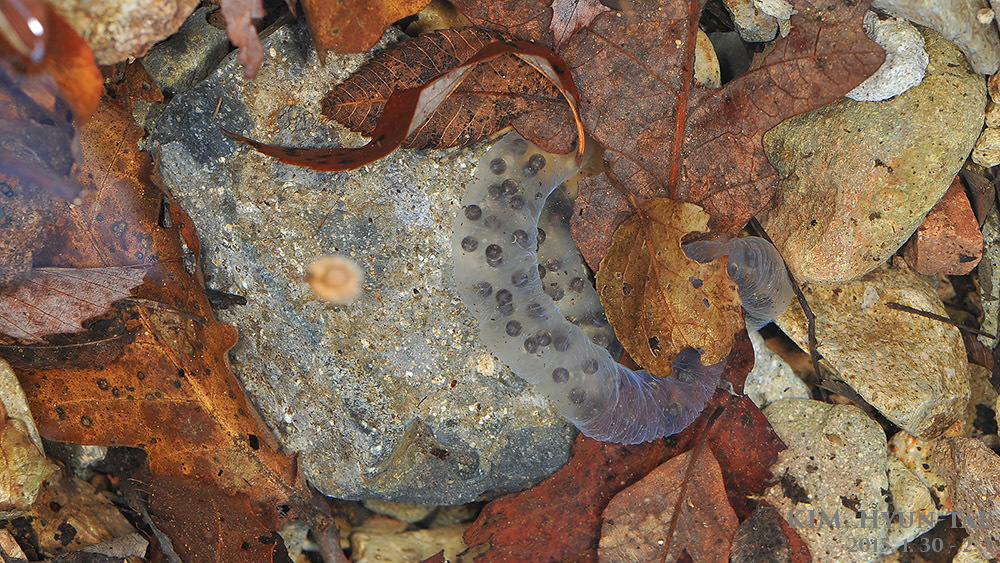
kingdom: Animalia
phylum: Chordata
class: Amphibia
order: Caudata
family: Hynobiidae
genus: Hynobius
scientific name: Hynobius notialis
